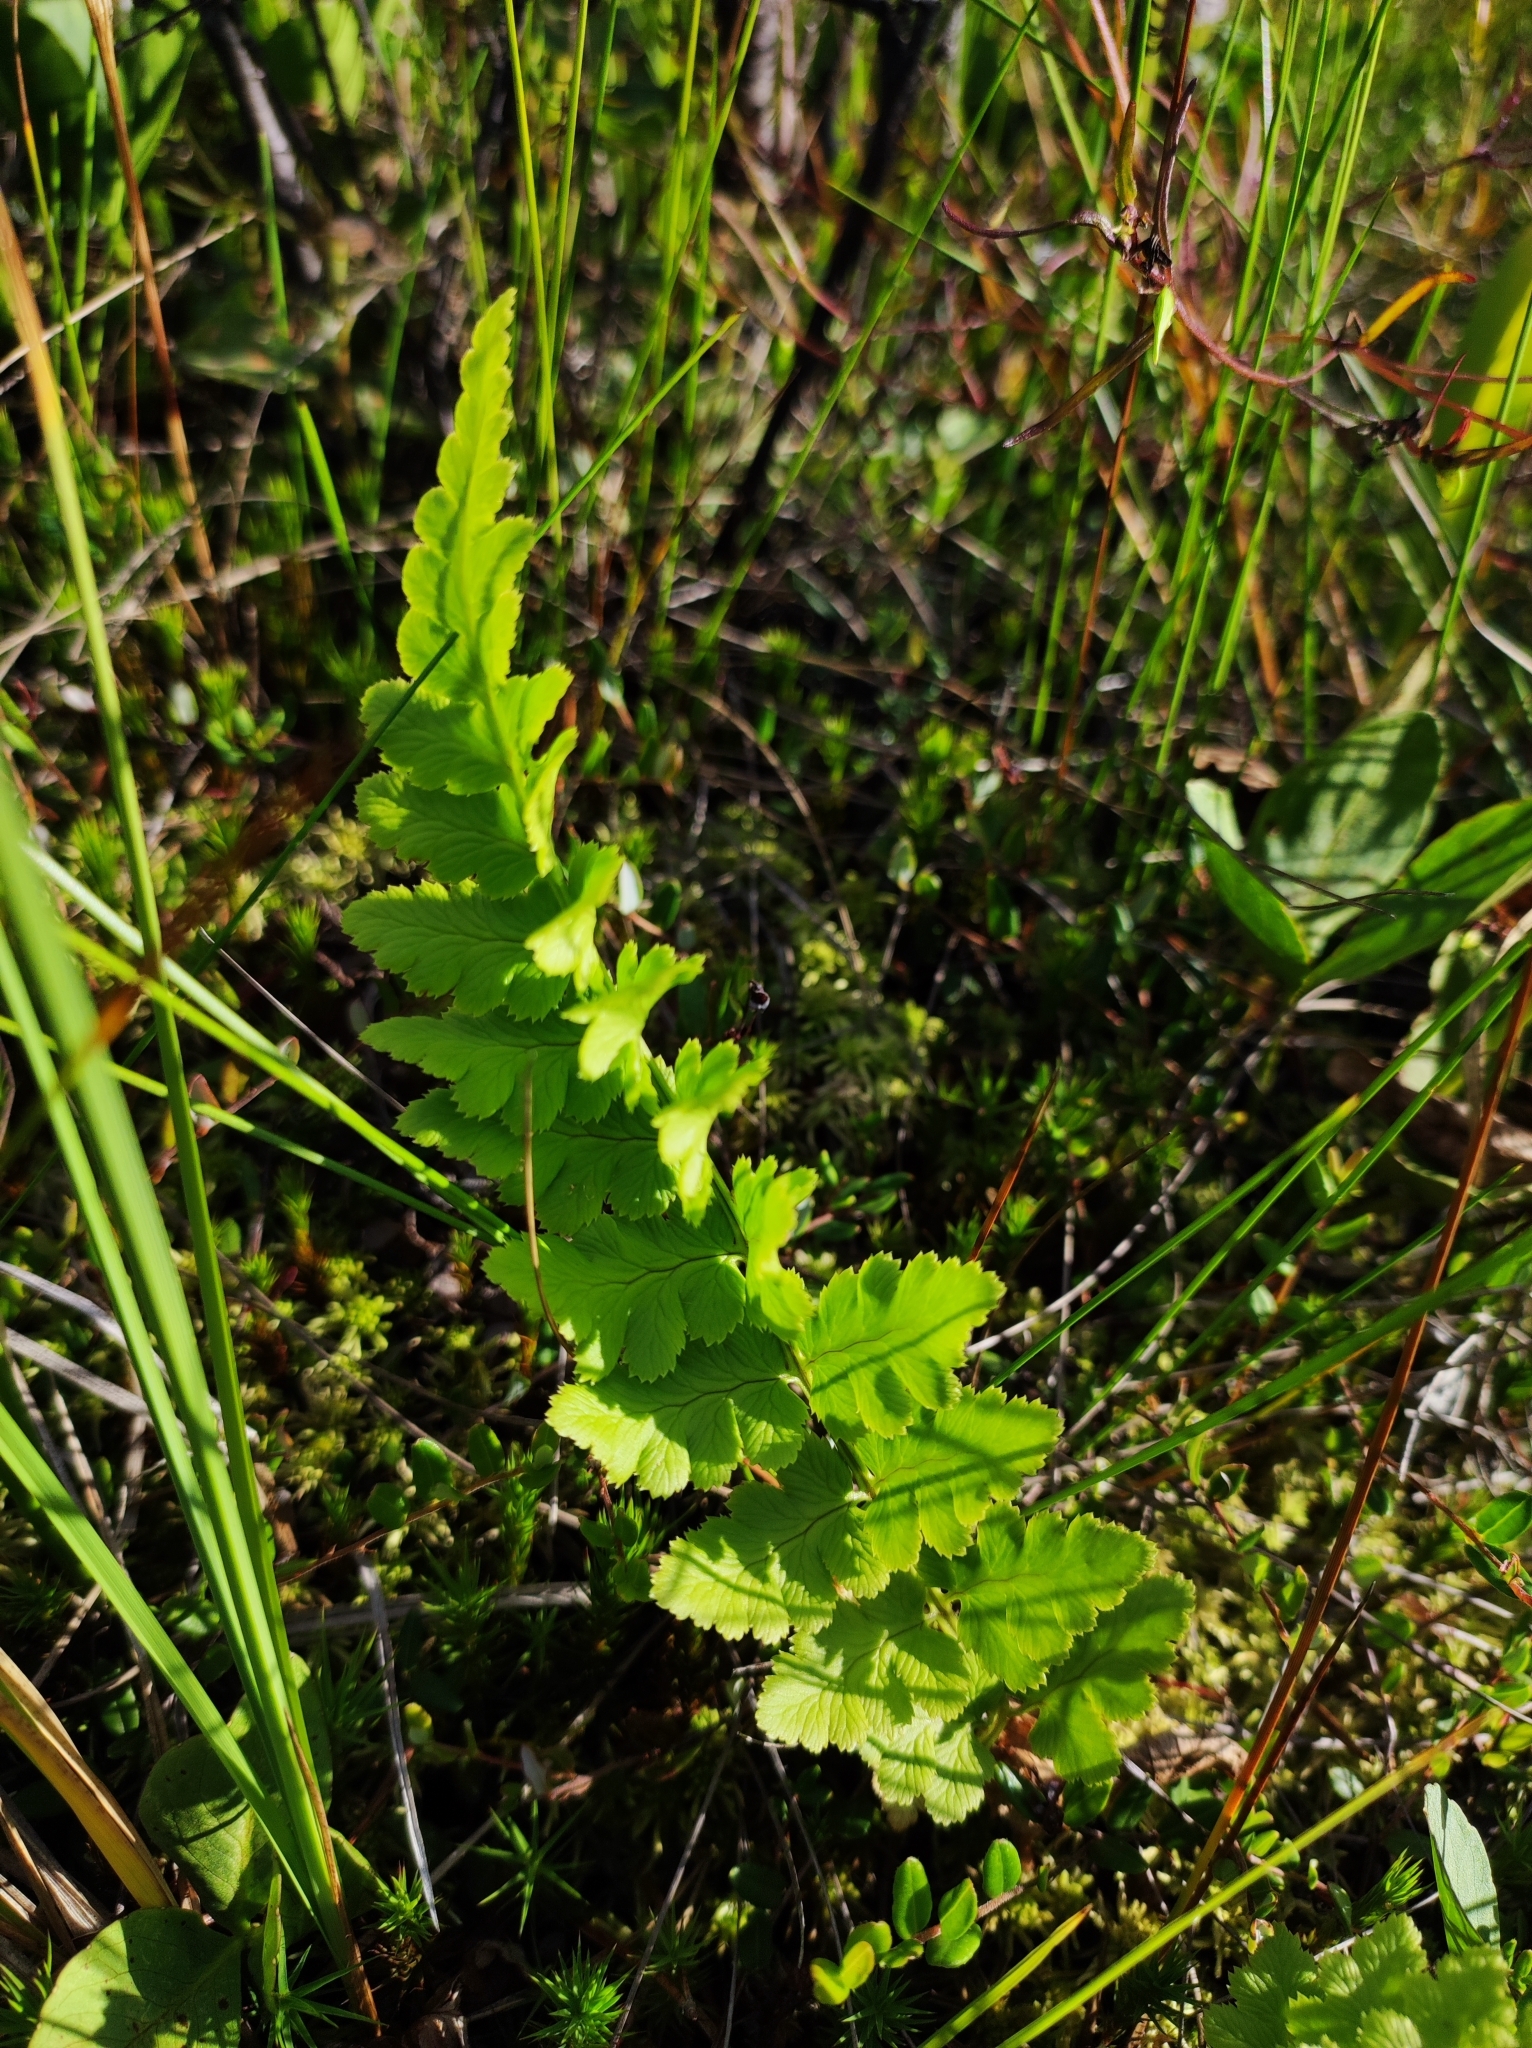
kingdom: Plantae
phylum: Tracheophyta
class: Polypodiopsida
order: Polypodiales
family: Dryopteridaceae
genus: Dryopteris
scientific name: Dryopteris cristata
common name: Crested wood fern
